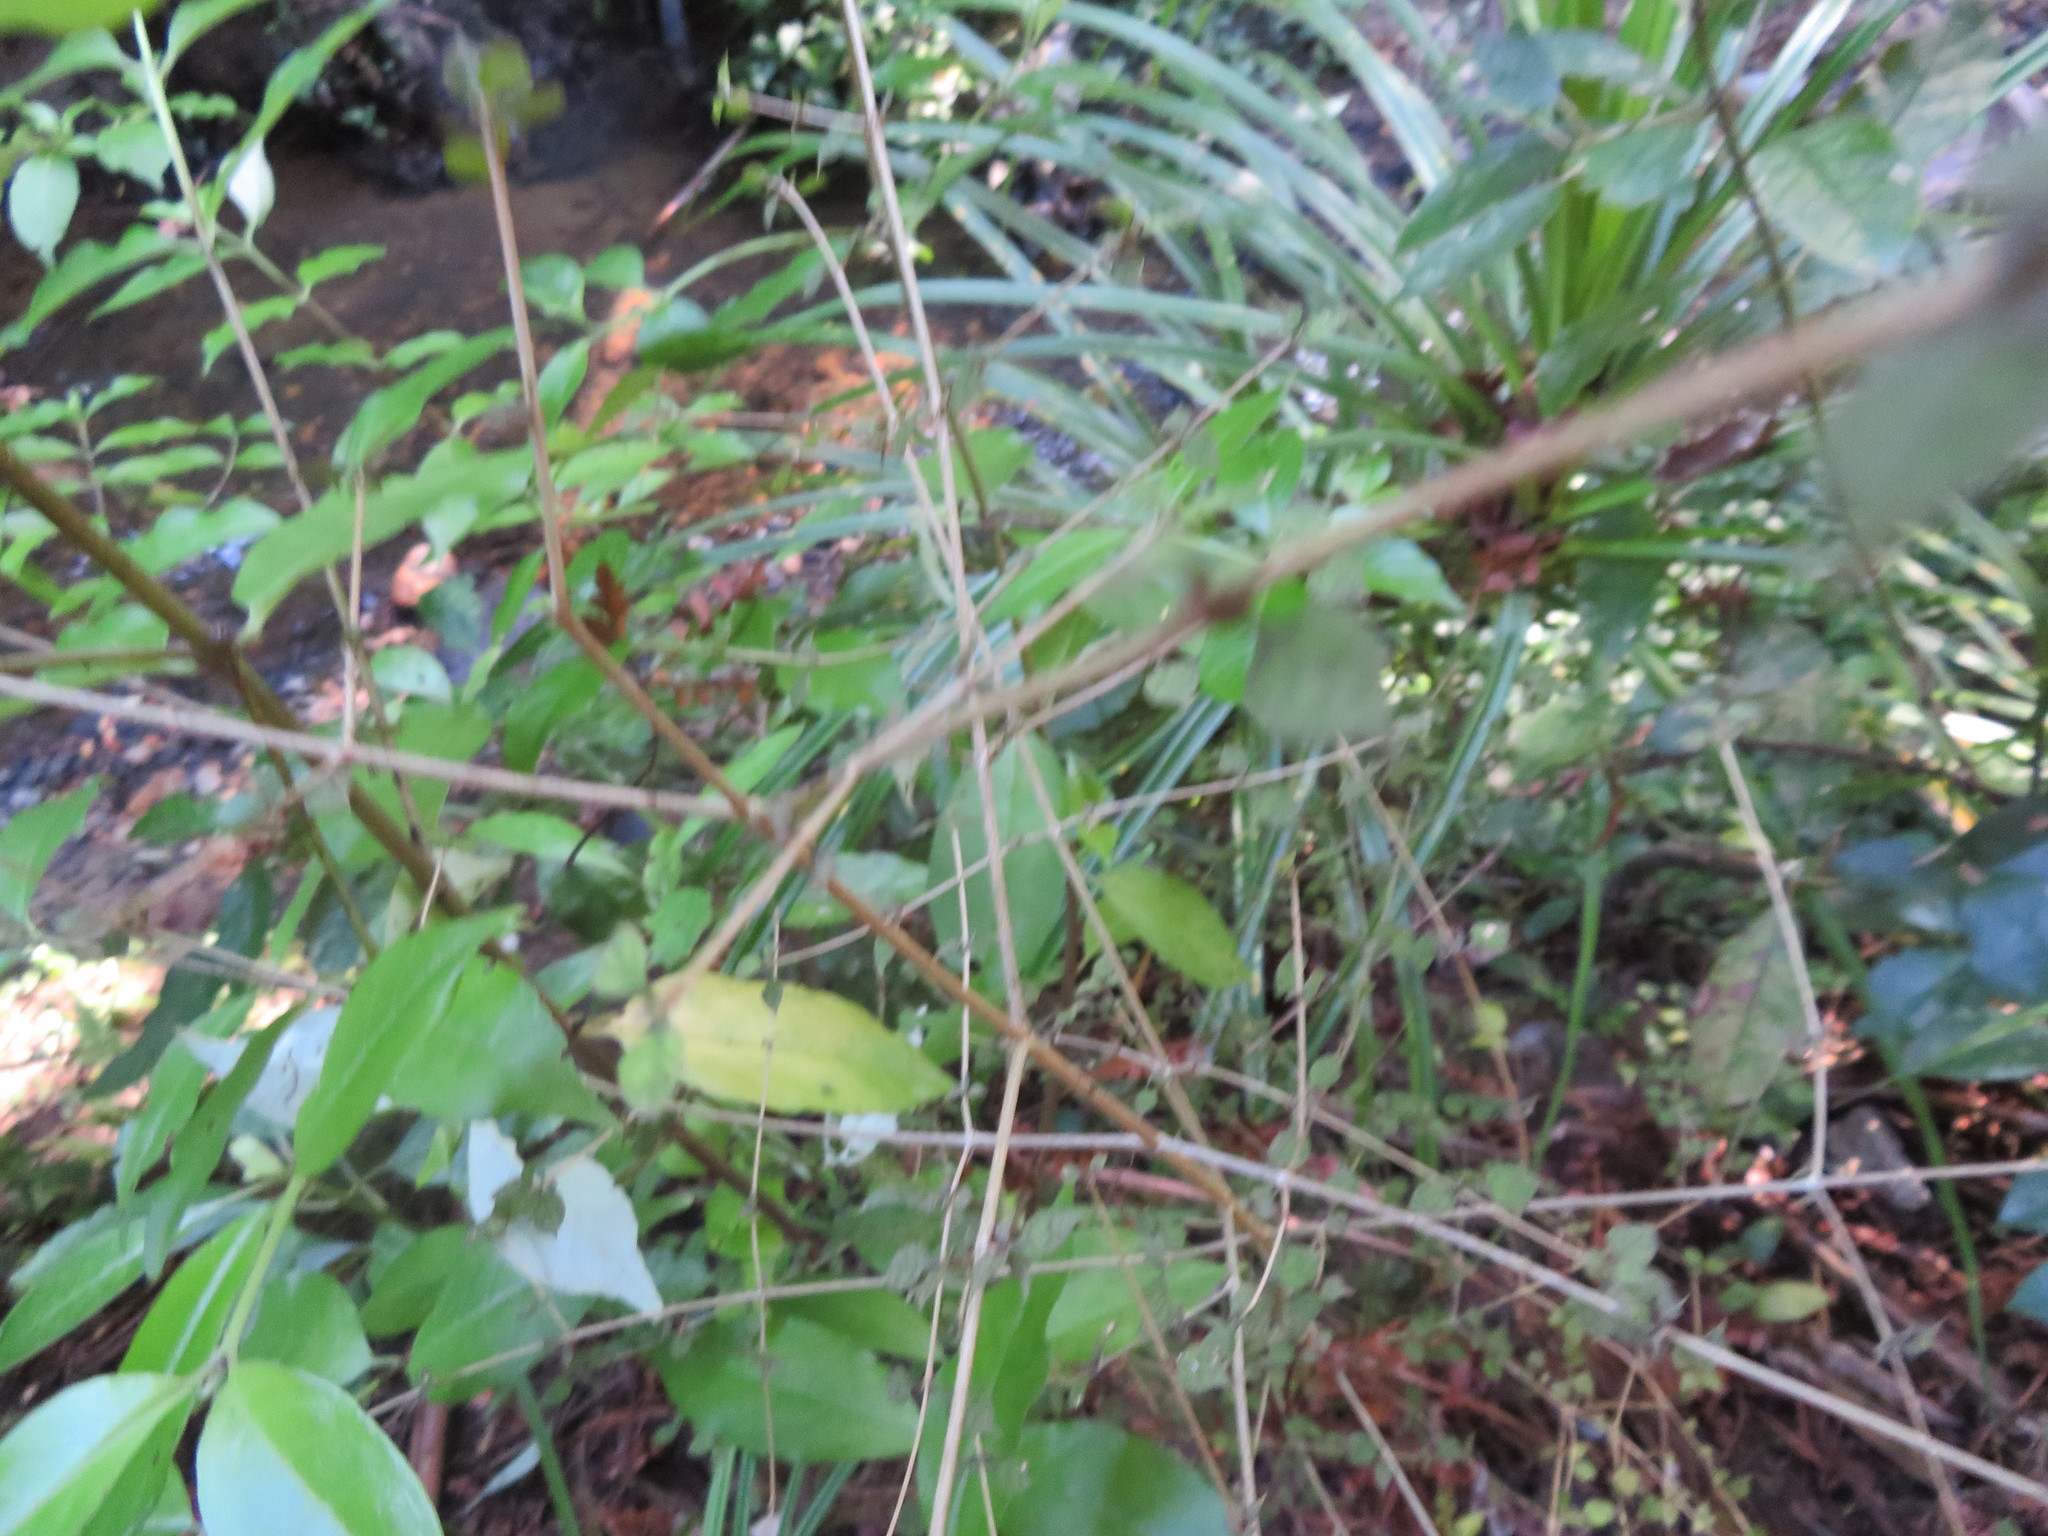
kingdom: Plantae
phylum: Tracheophyta
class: Liliopsida
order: Pandanales
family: Pandanaceae
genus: Freycinetia
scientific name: Freycinetia banksii
